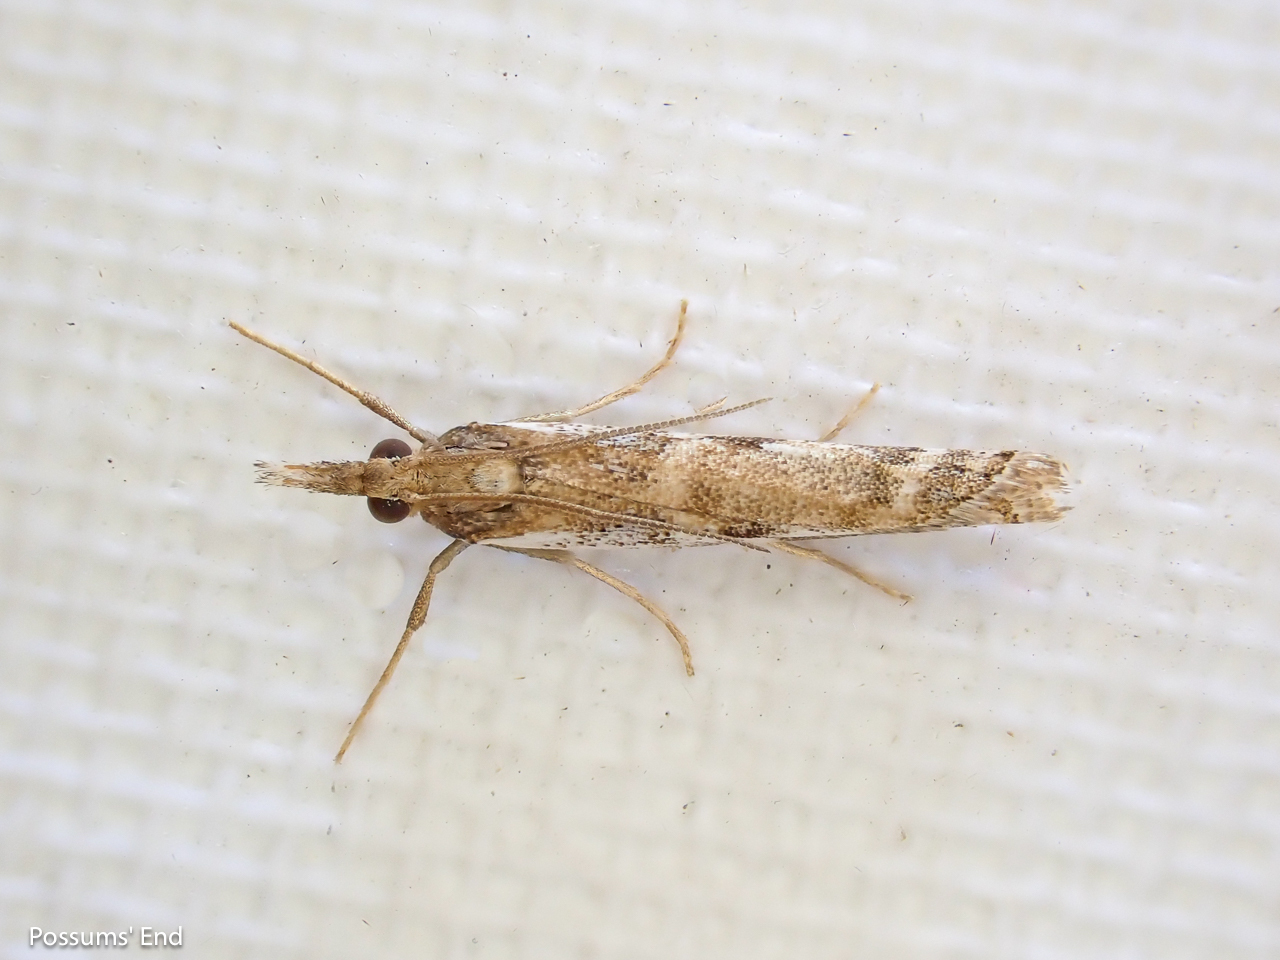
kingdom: Animalia
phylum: Arthropoda
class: Insecta
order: Lepidoptera
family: Crambidae
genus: Orocrambus
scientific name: Orocrambus vulgaris
